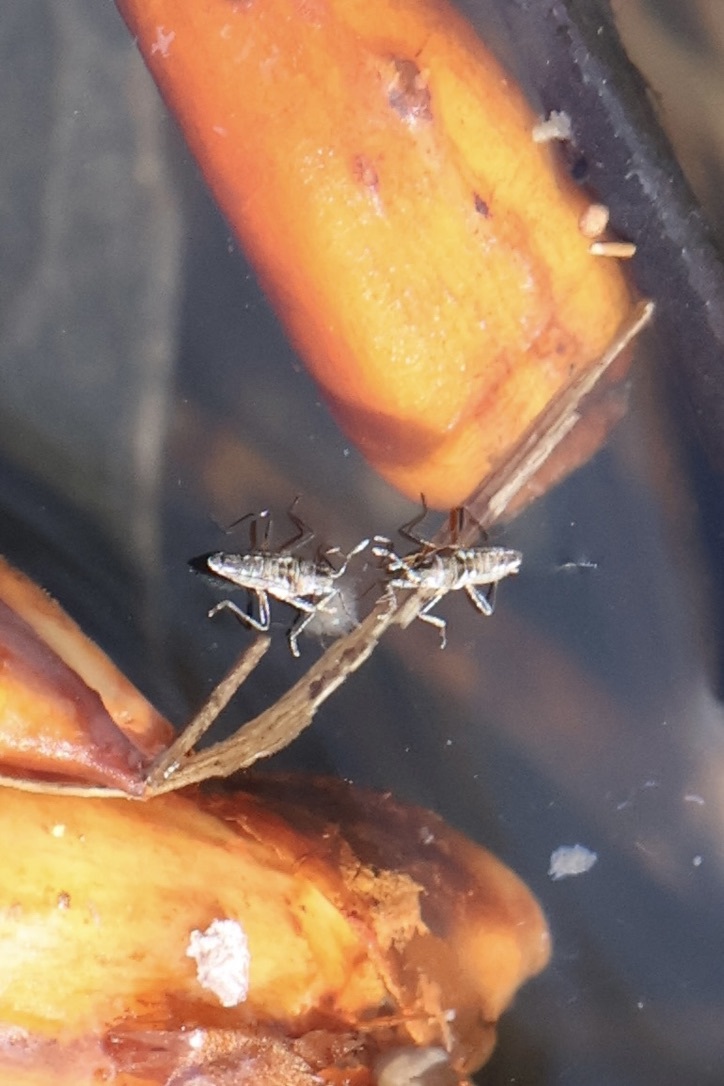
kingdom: Animalia
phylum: Arthropoda
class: Insecta
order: Hemiptera
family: Veliidae
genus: Microvelia
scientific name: Microvelia buenoi
